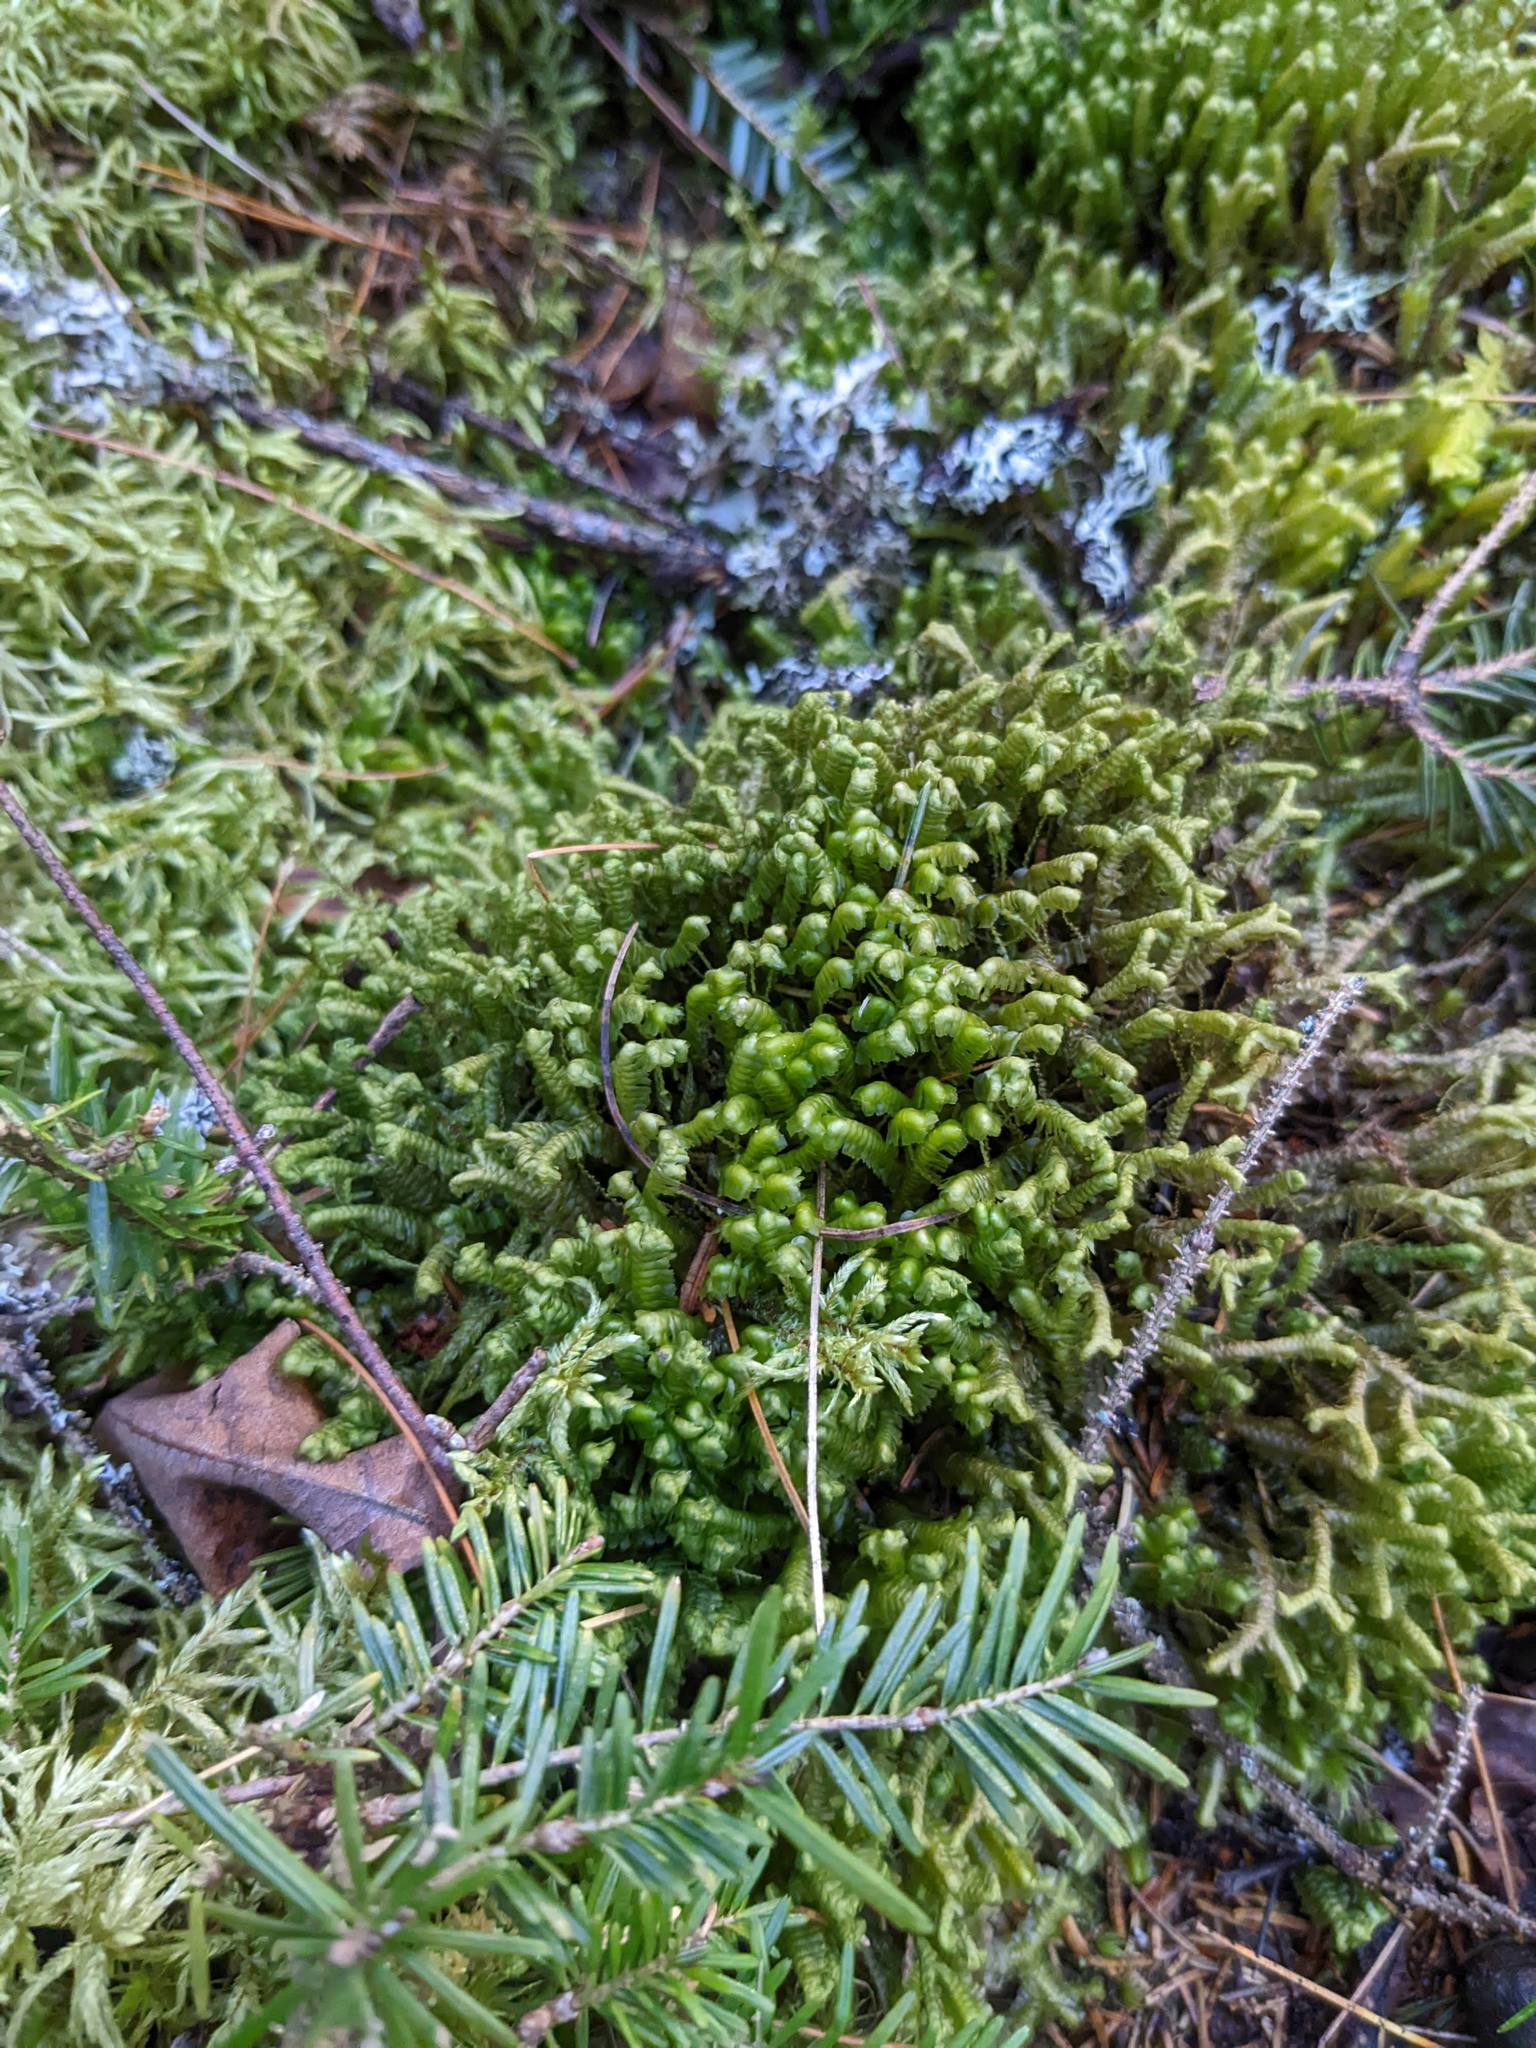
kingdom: Plantae
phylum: Tracheophyta
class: Pinopsida
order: Pinales
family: Pinaceae
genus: Abies
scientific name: Abies balsamea
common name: Balsam fir
